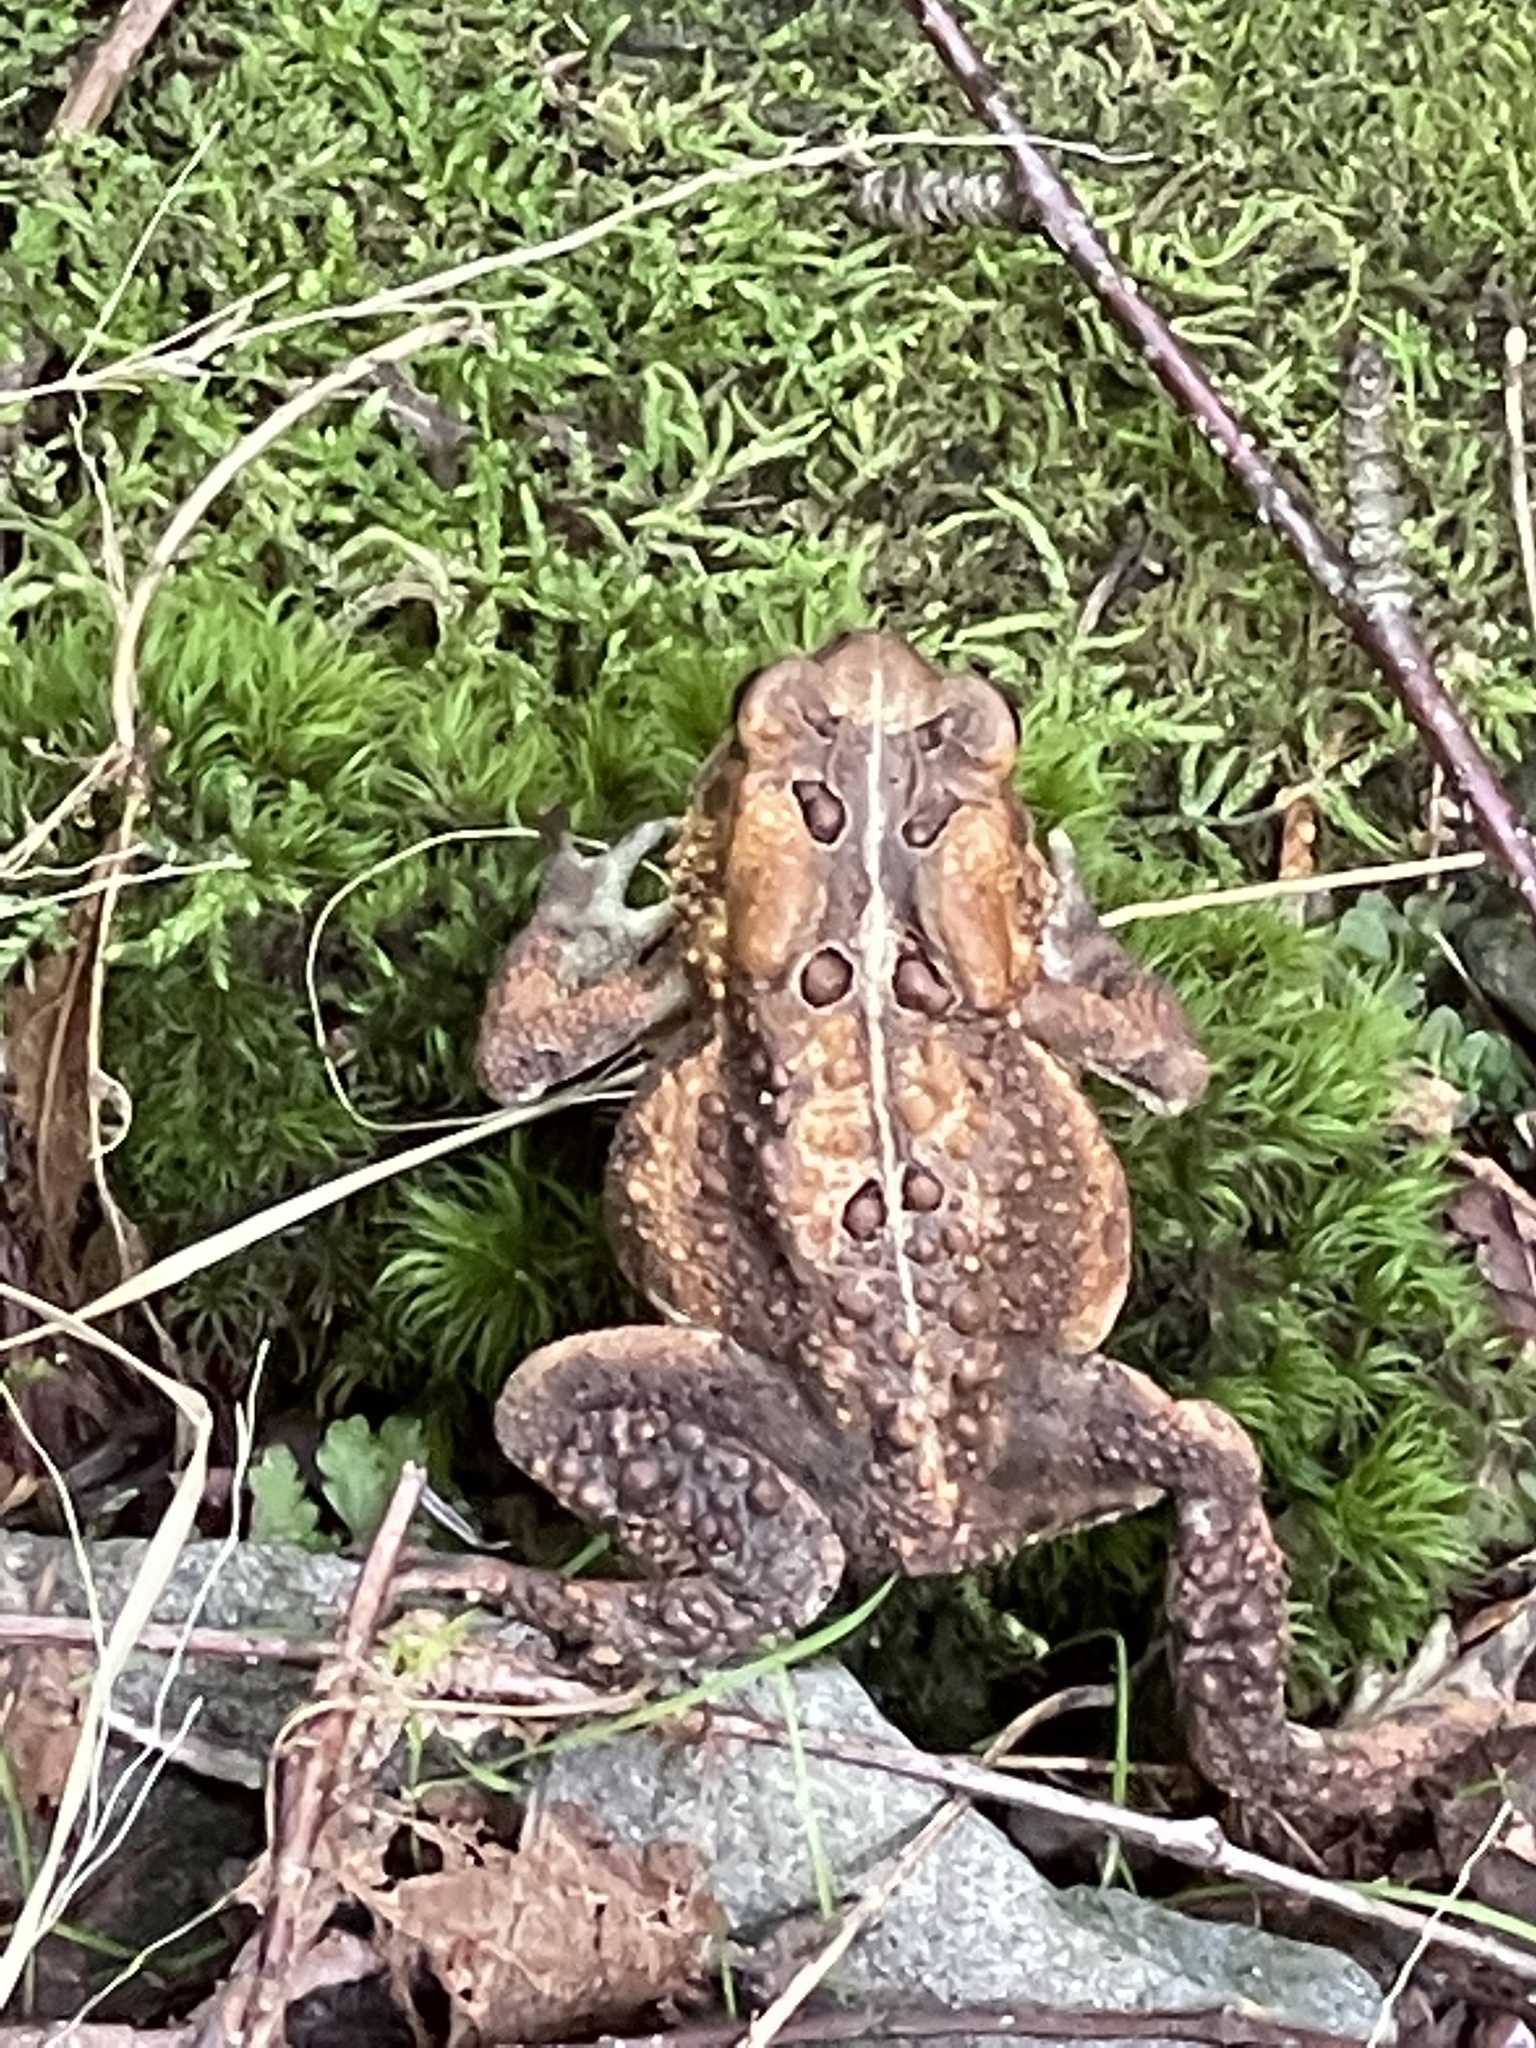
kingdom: Animalia
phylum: Chordata
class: Amphibia
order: Anura
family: Bufonidae
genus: Anaxyrus
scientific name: Anaxyrus americanus
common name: American toad
